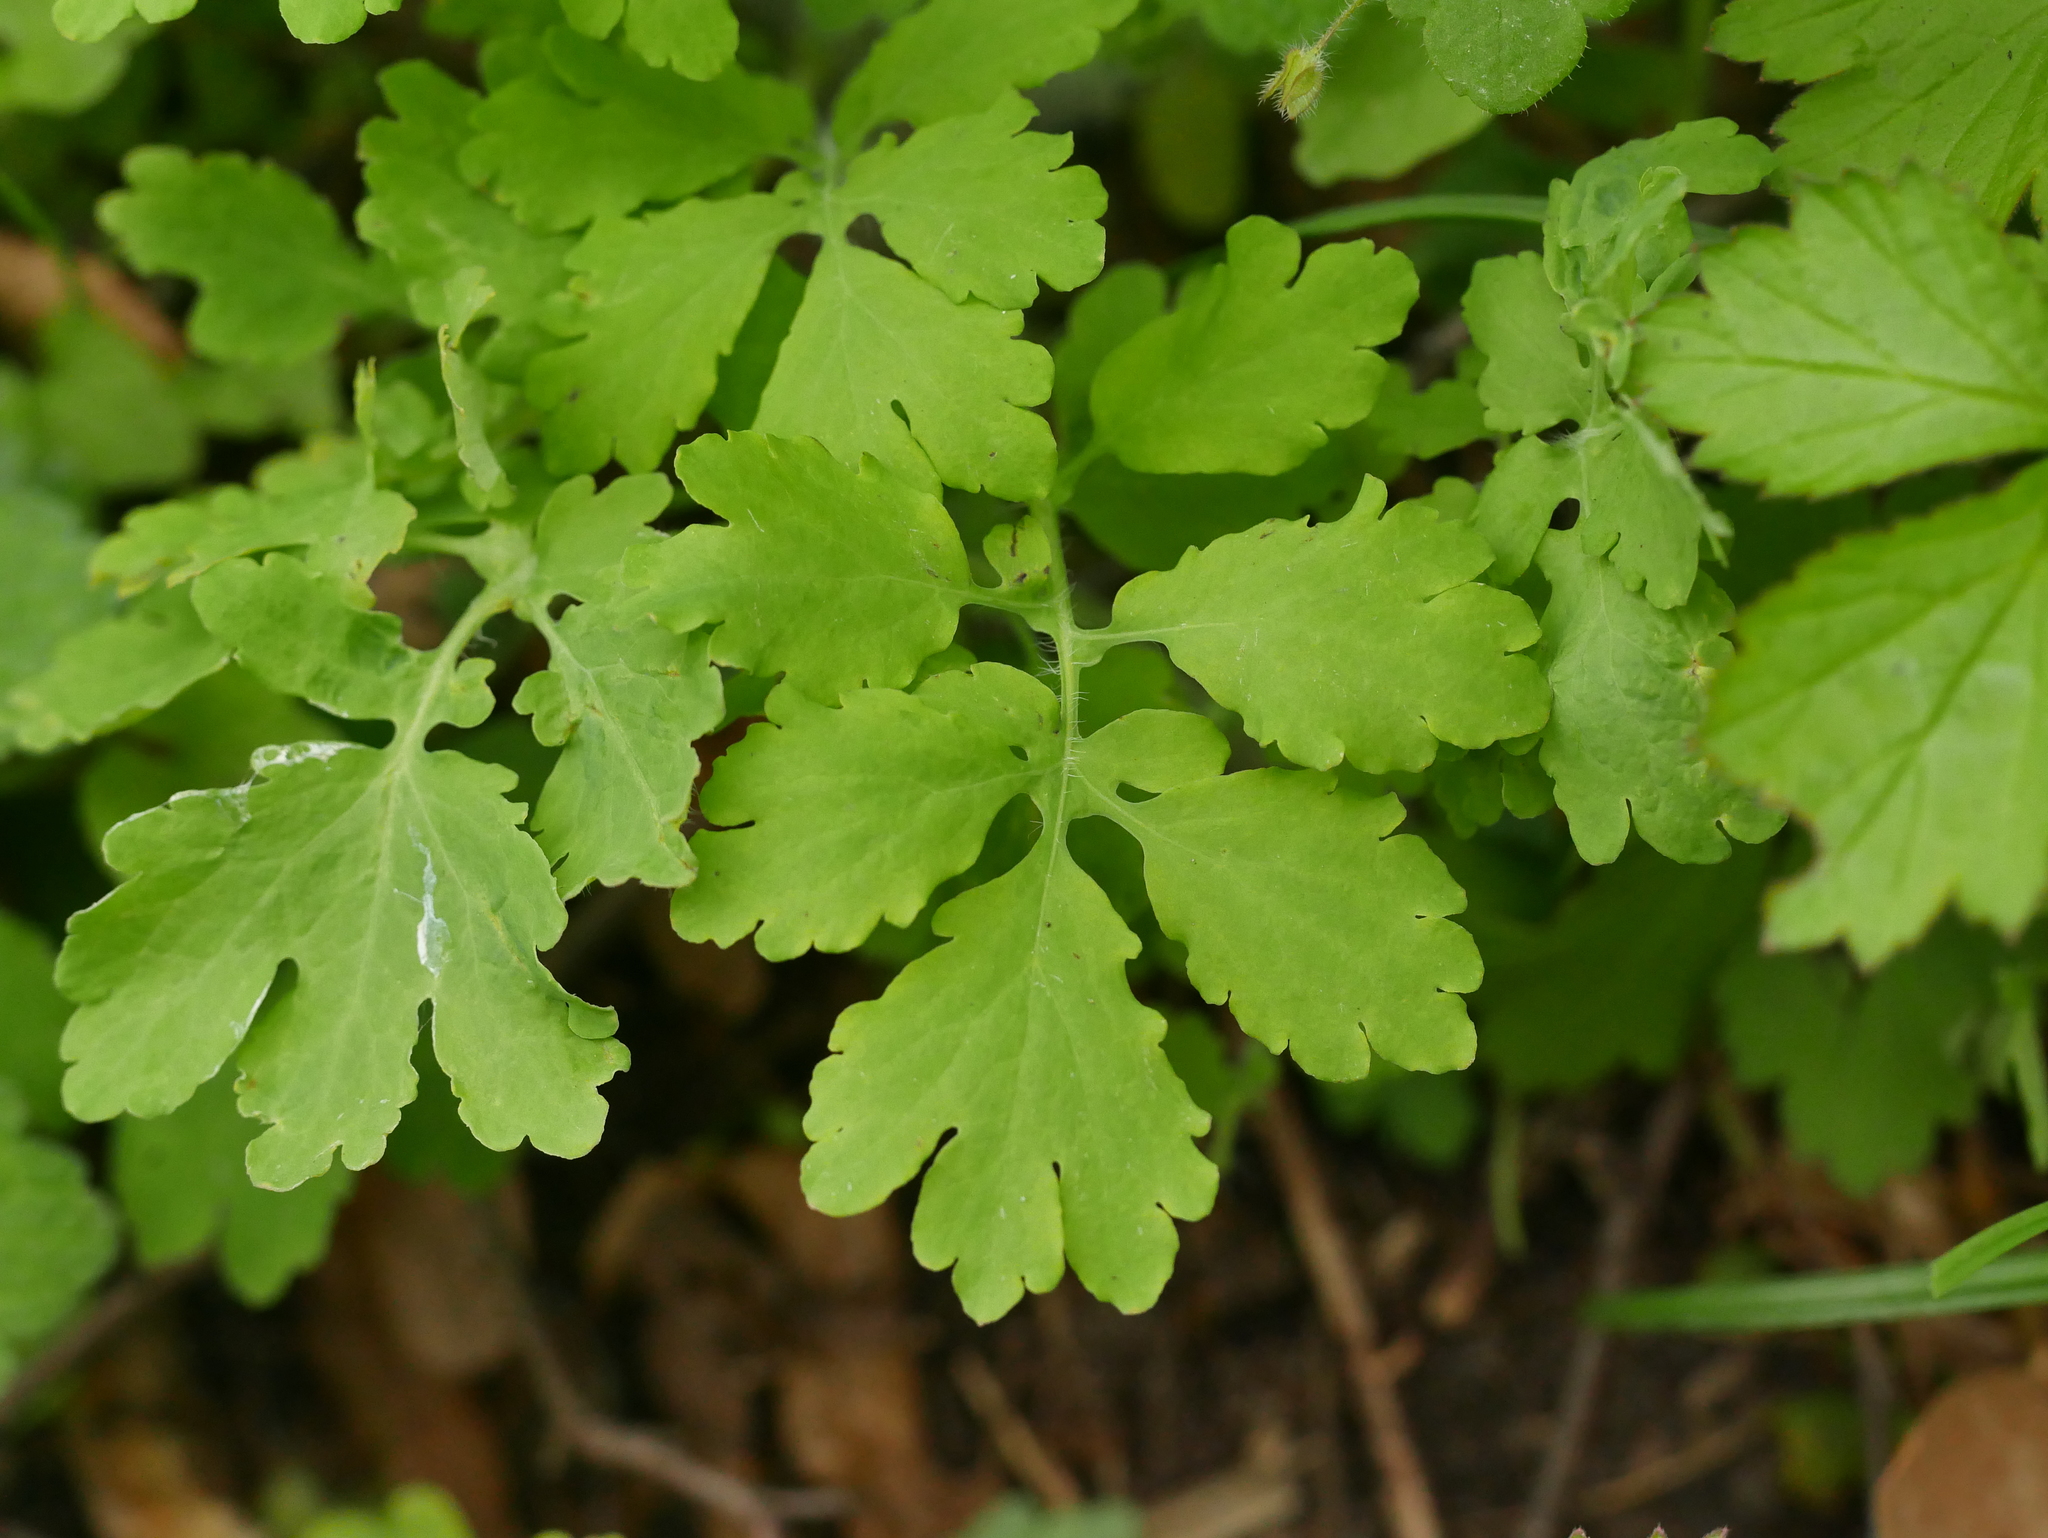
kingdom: Plantae
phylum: Tracheophyta
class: Magnoliopsida
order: Ranunculales
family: Papaveraceae
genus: Chelidonium
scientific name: Chelidonium majus
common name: Greater celandine
